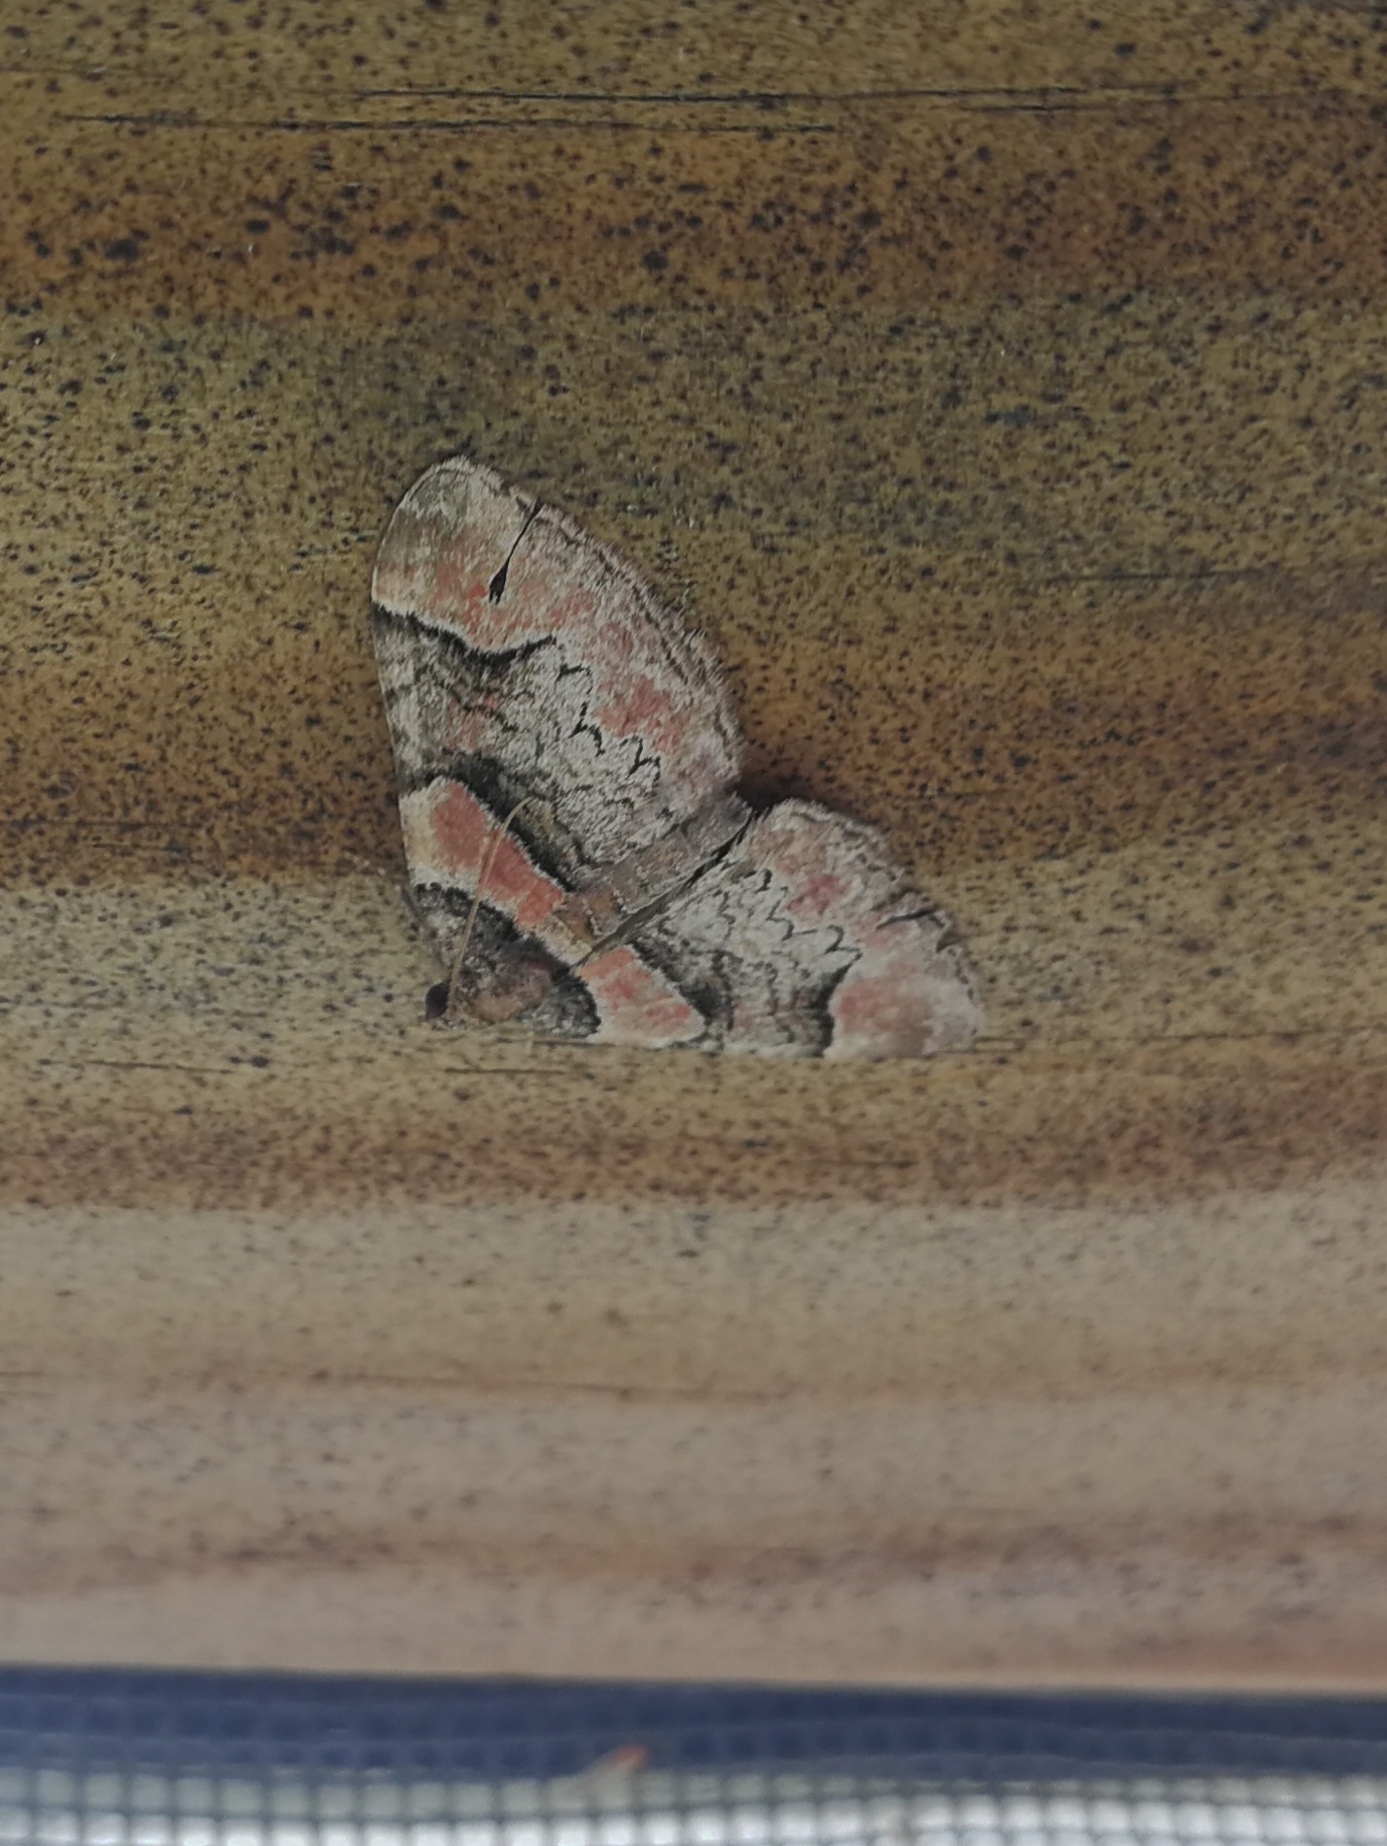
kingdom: Animalia
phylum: Arthropoda
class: Insecta
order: Lepidoptera
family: Geometridae
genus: Catarhoe
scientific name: Catarhoe rubidata
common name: Ruddy carpet
